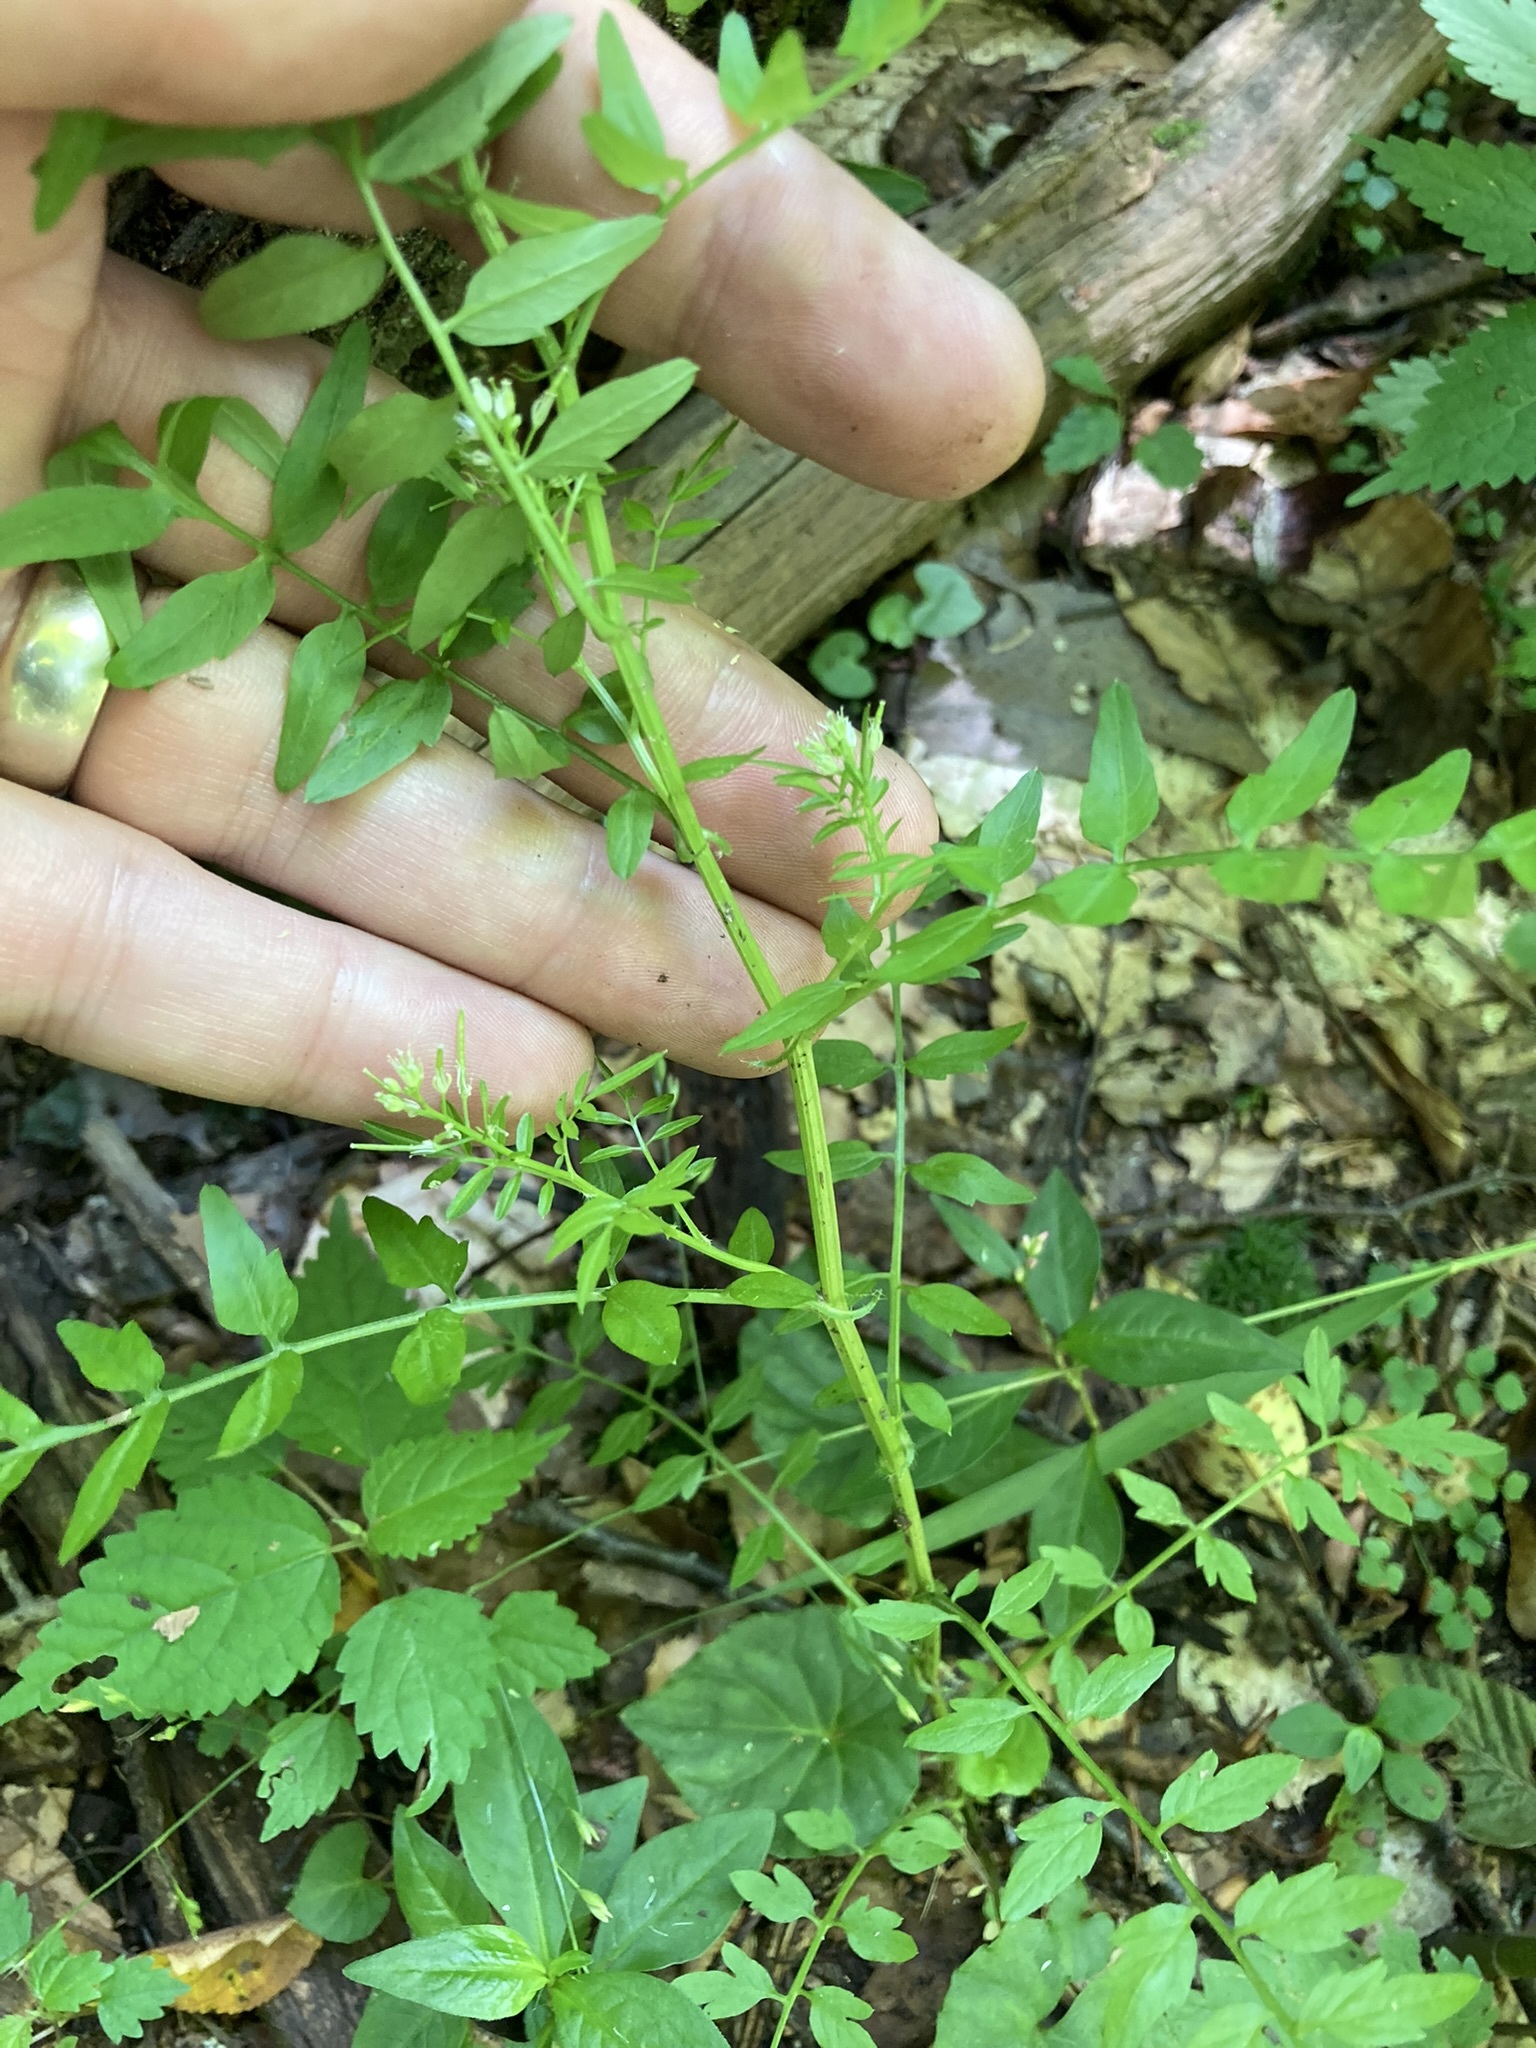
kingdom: Plantae
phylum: Tracheophyta
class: Magnoliopsida
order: Brassicales
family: Brassicaceae
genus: Cardamine
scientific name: Cardamine impatiens
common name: Narrow-leaved bitter-cress
